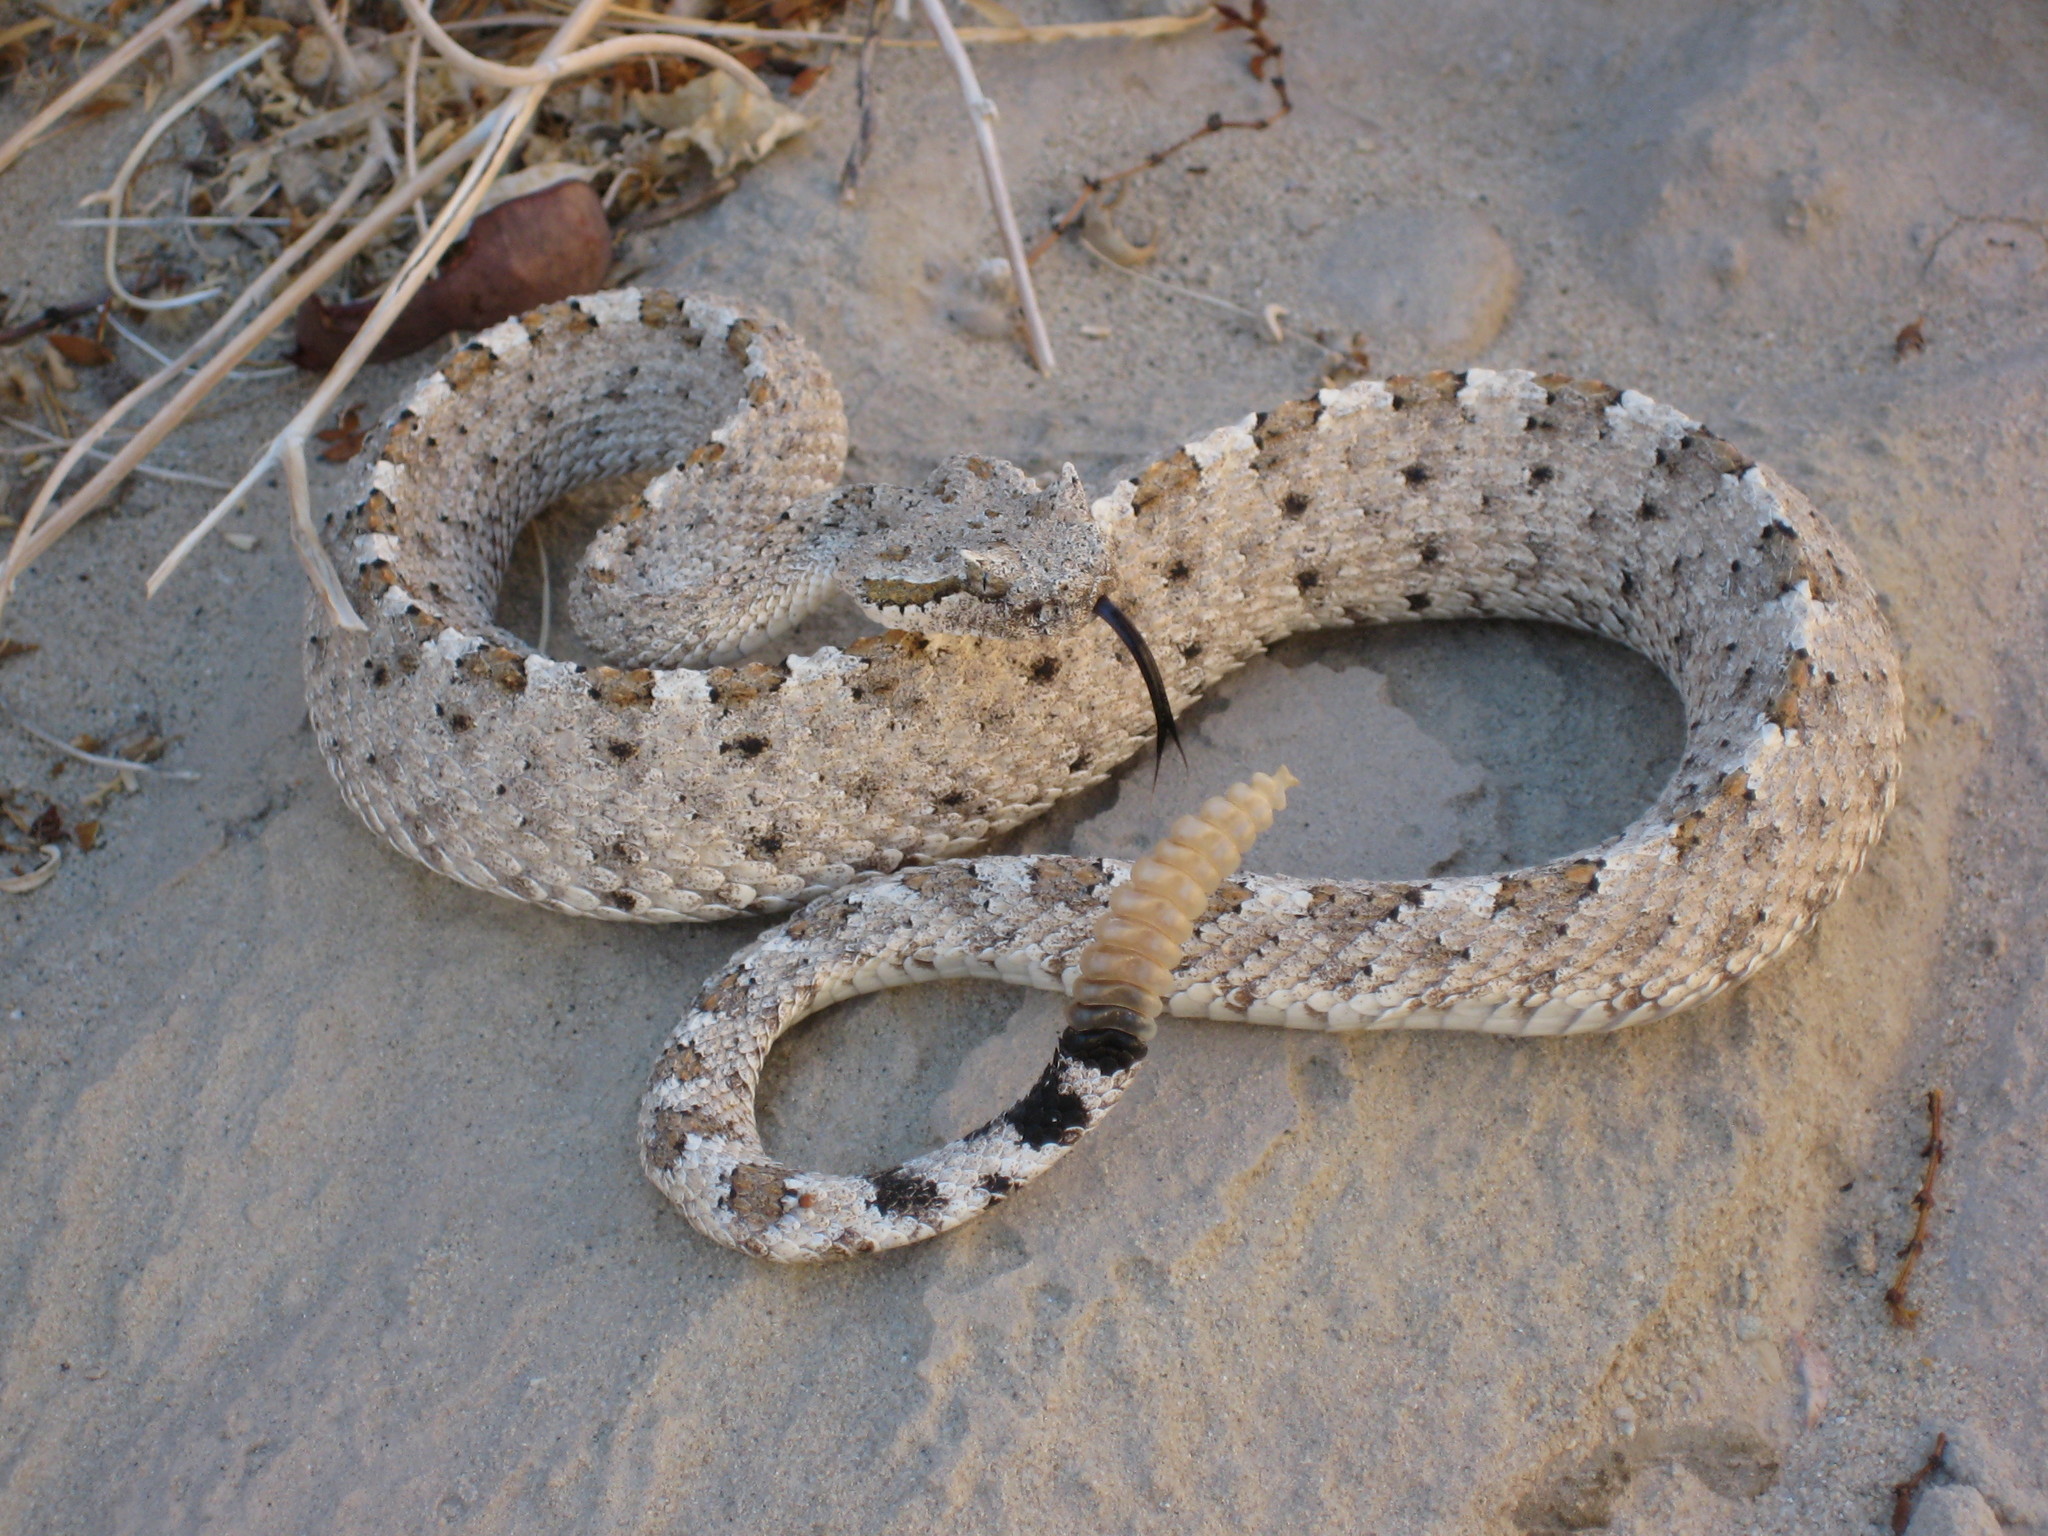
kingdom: Animalia
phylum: Chordata
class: Squamata
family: Viperidae
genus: Crotalus
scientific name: Crotalus cerastes
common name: Sidewinder
